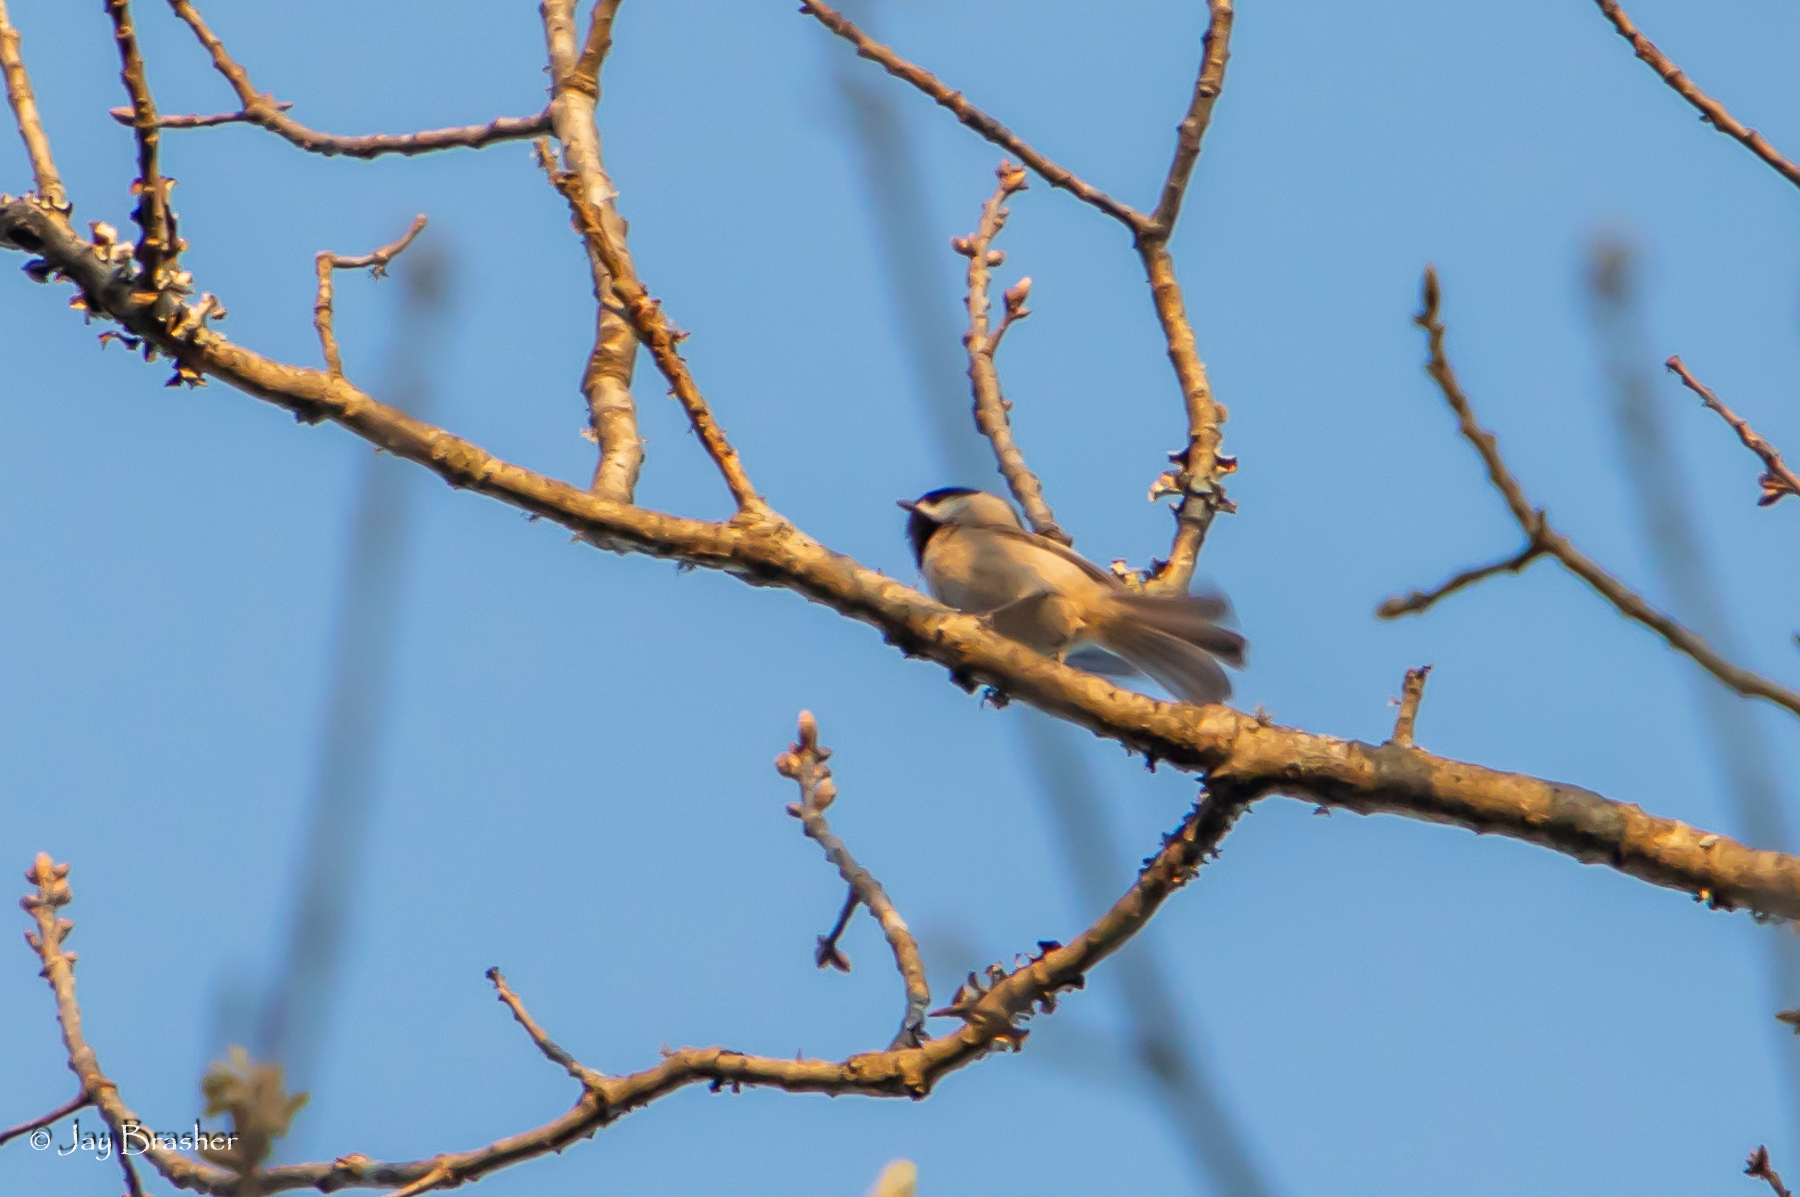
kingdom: Animalia
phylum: Chordata
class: Aves
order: Passeriformes
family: Paridae
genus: Poecile
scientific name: Poecile carolinensis
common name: Carolina chickadee
